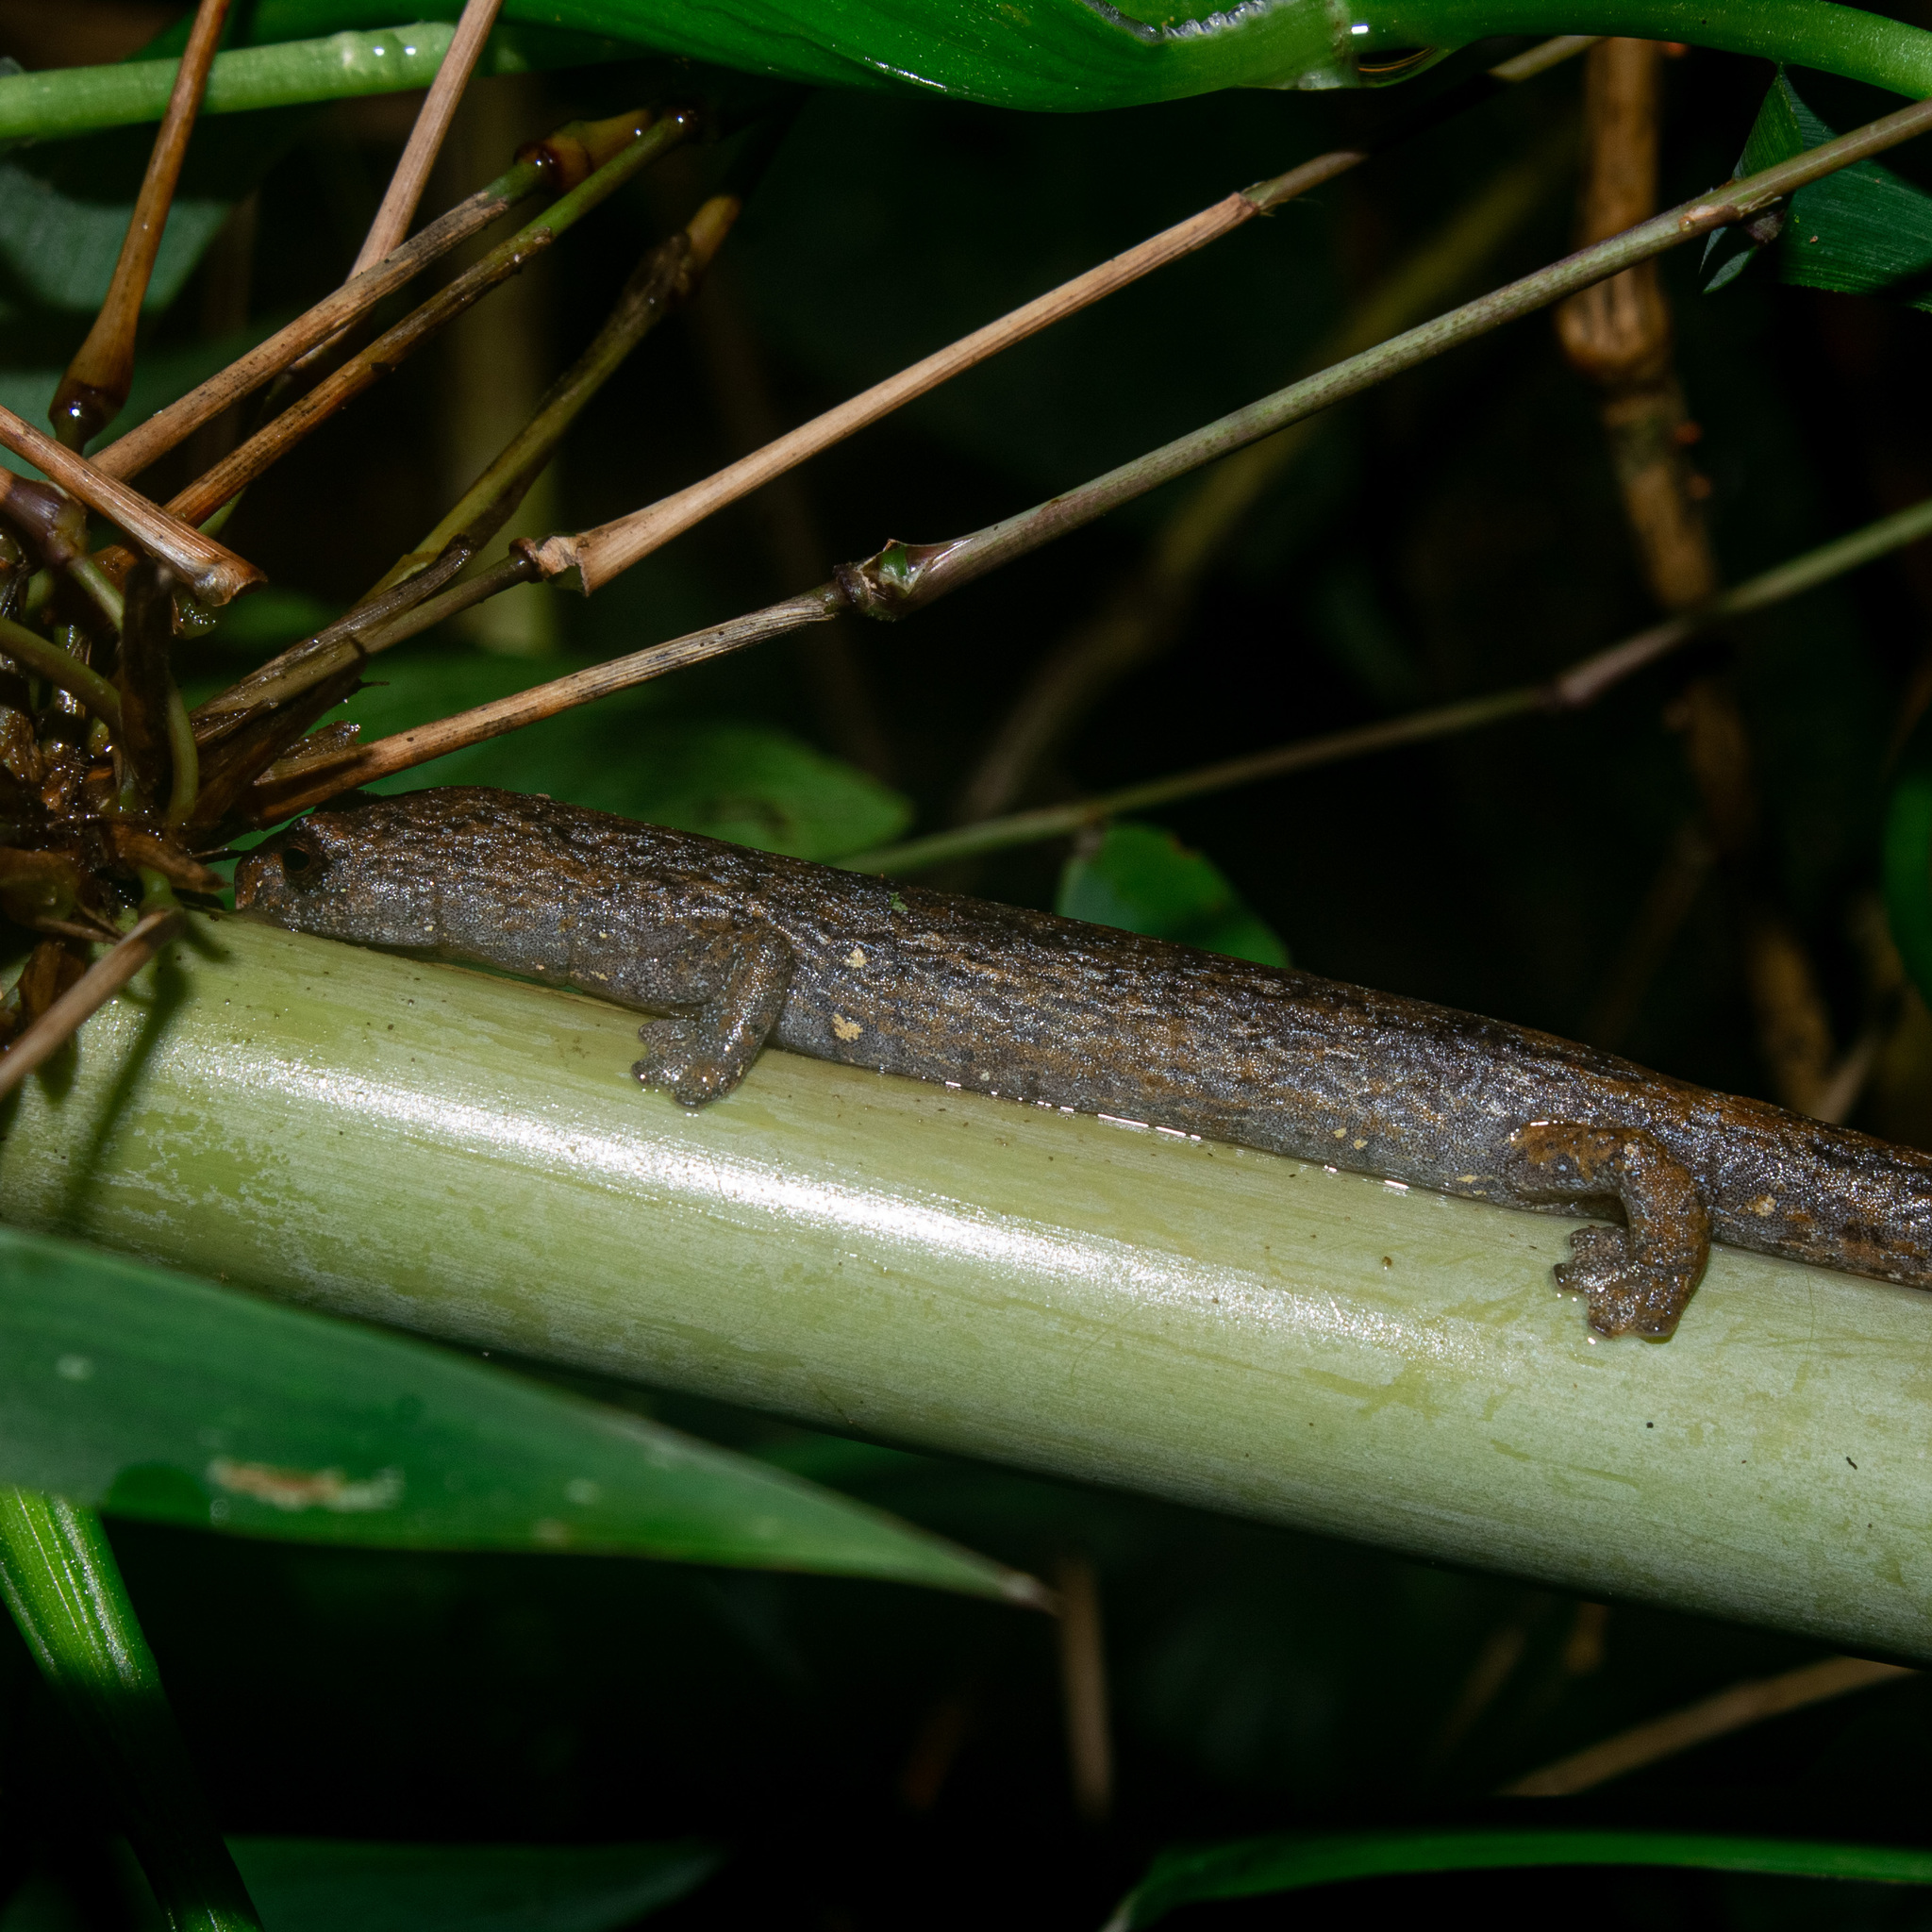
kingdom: Animalia
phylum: Chordata
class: Amphibia
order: Caudata
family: Plethodontidae
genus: Bolitoglossa
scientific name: Bolitoglossa savagei
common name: Savage's mushroomtongue salamander
